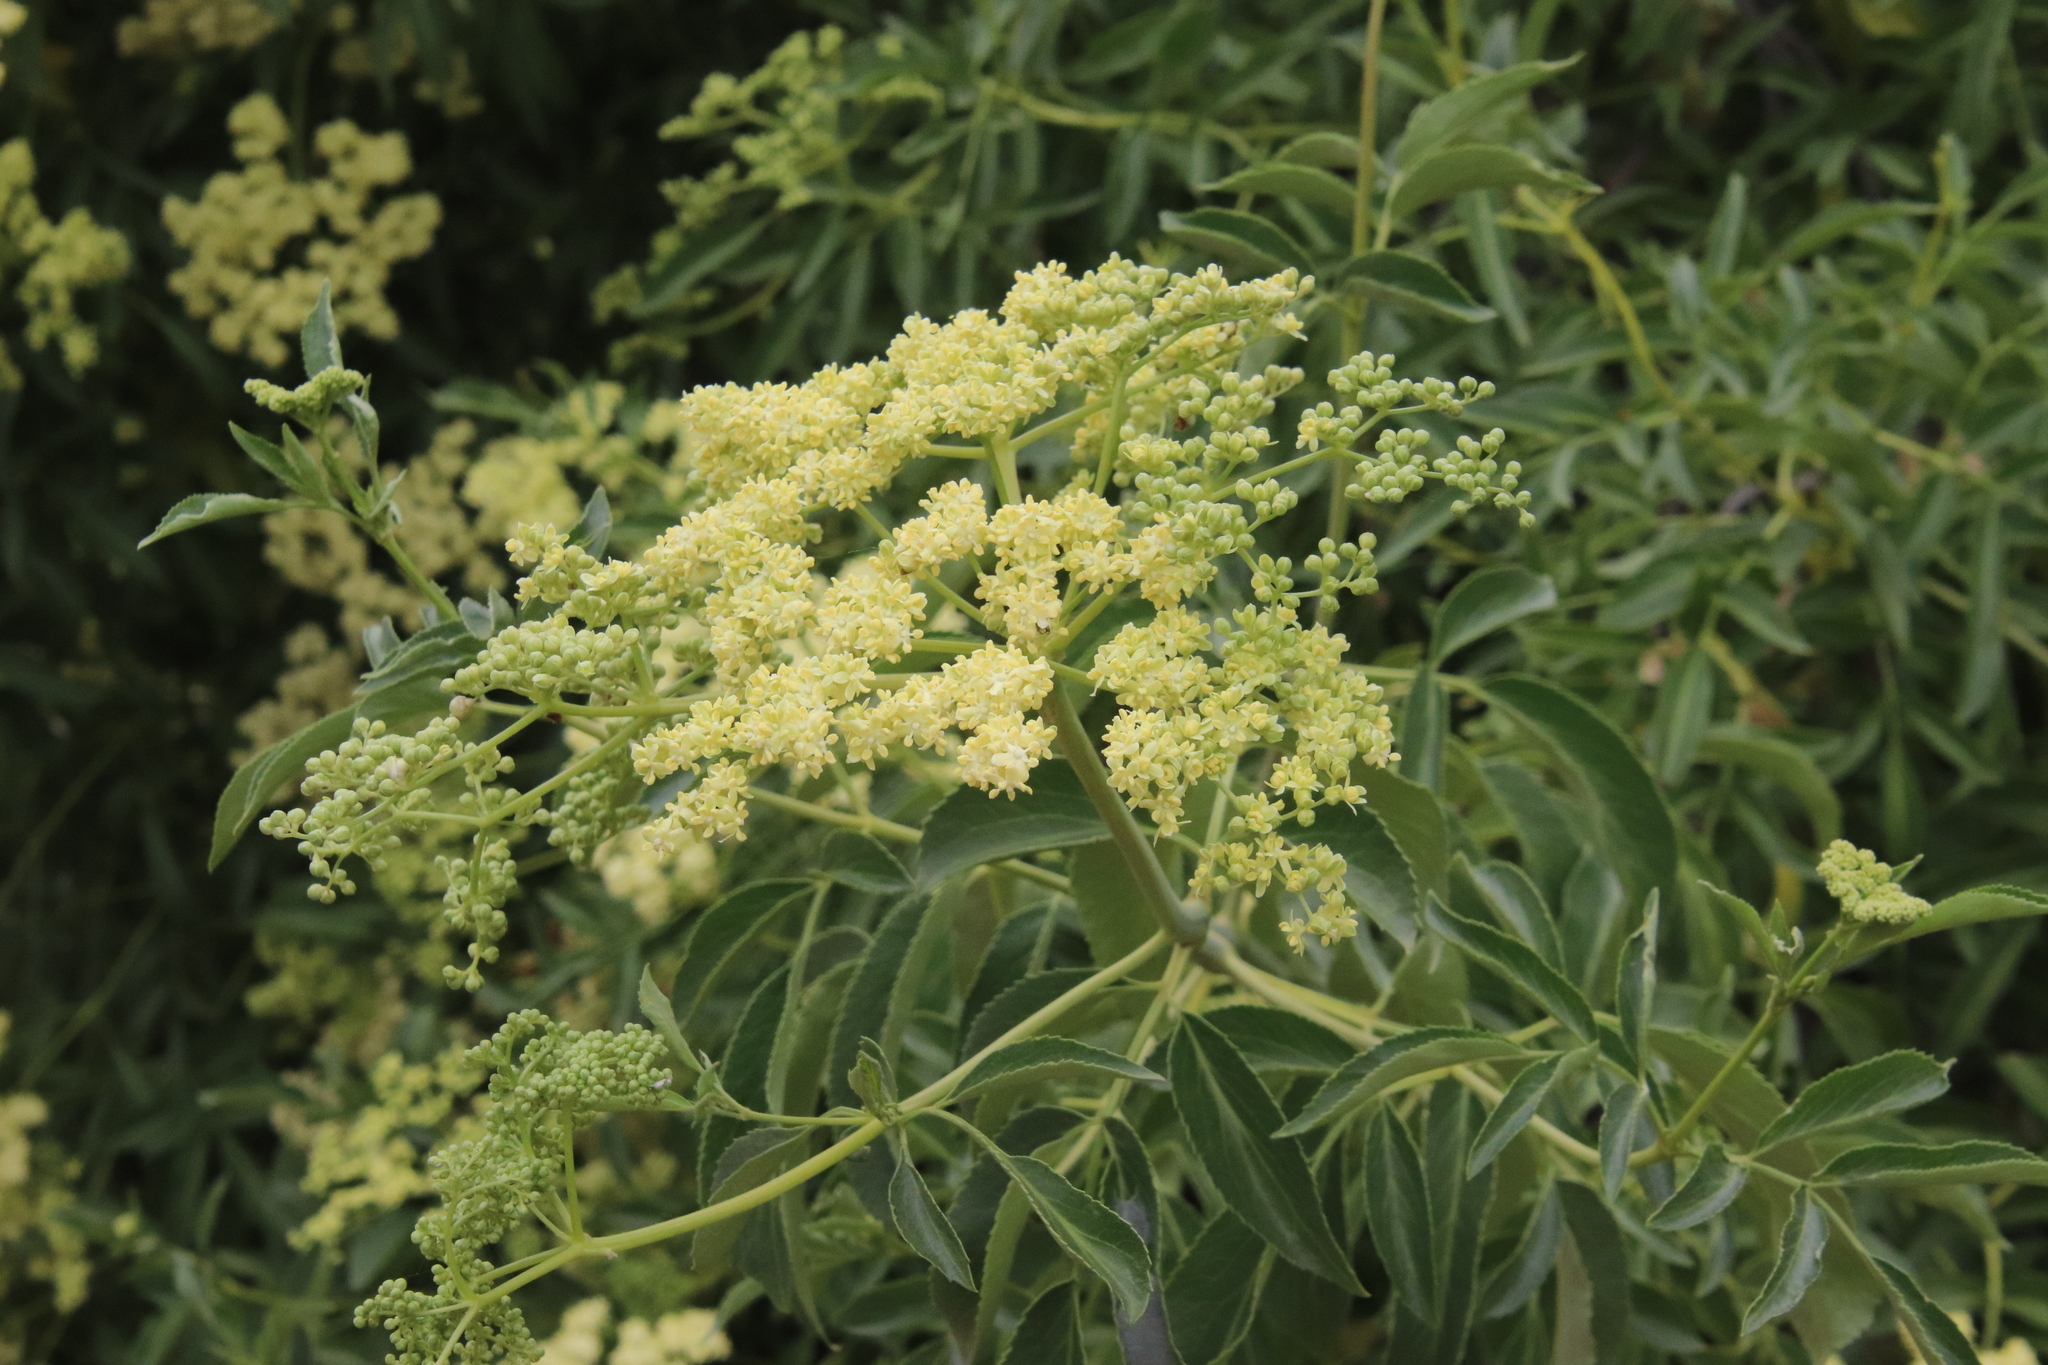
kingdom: Plantae
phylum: Tracheophyta
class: Magnoliopsida
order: Dipsacales
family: Viburnaceae
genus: Sambucus
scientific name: Sambucus cerulea
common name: Blue elder
